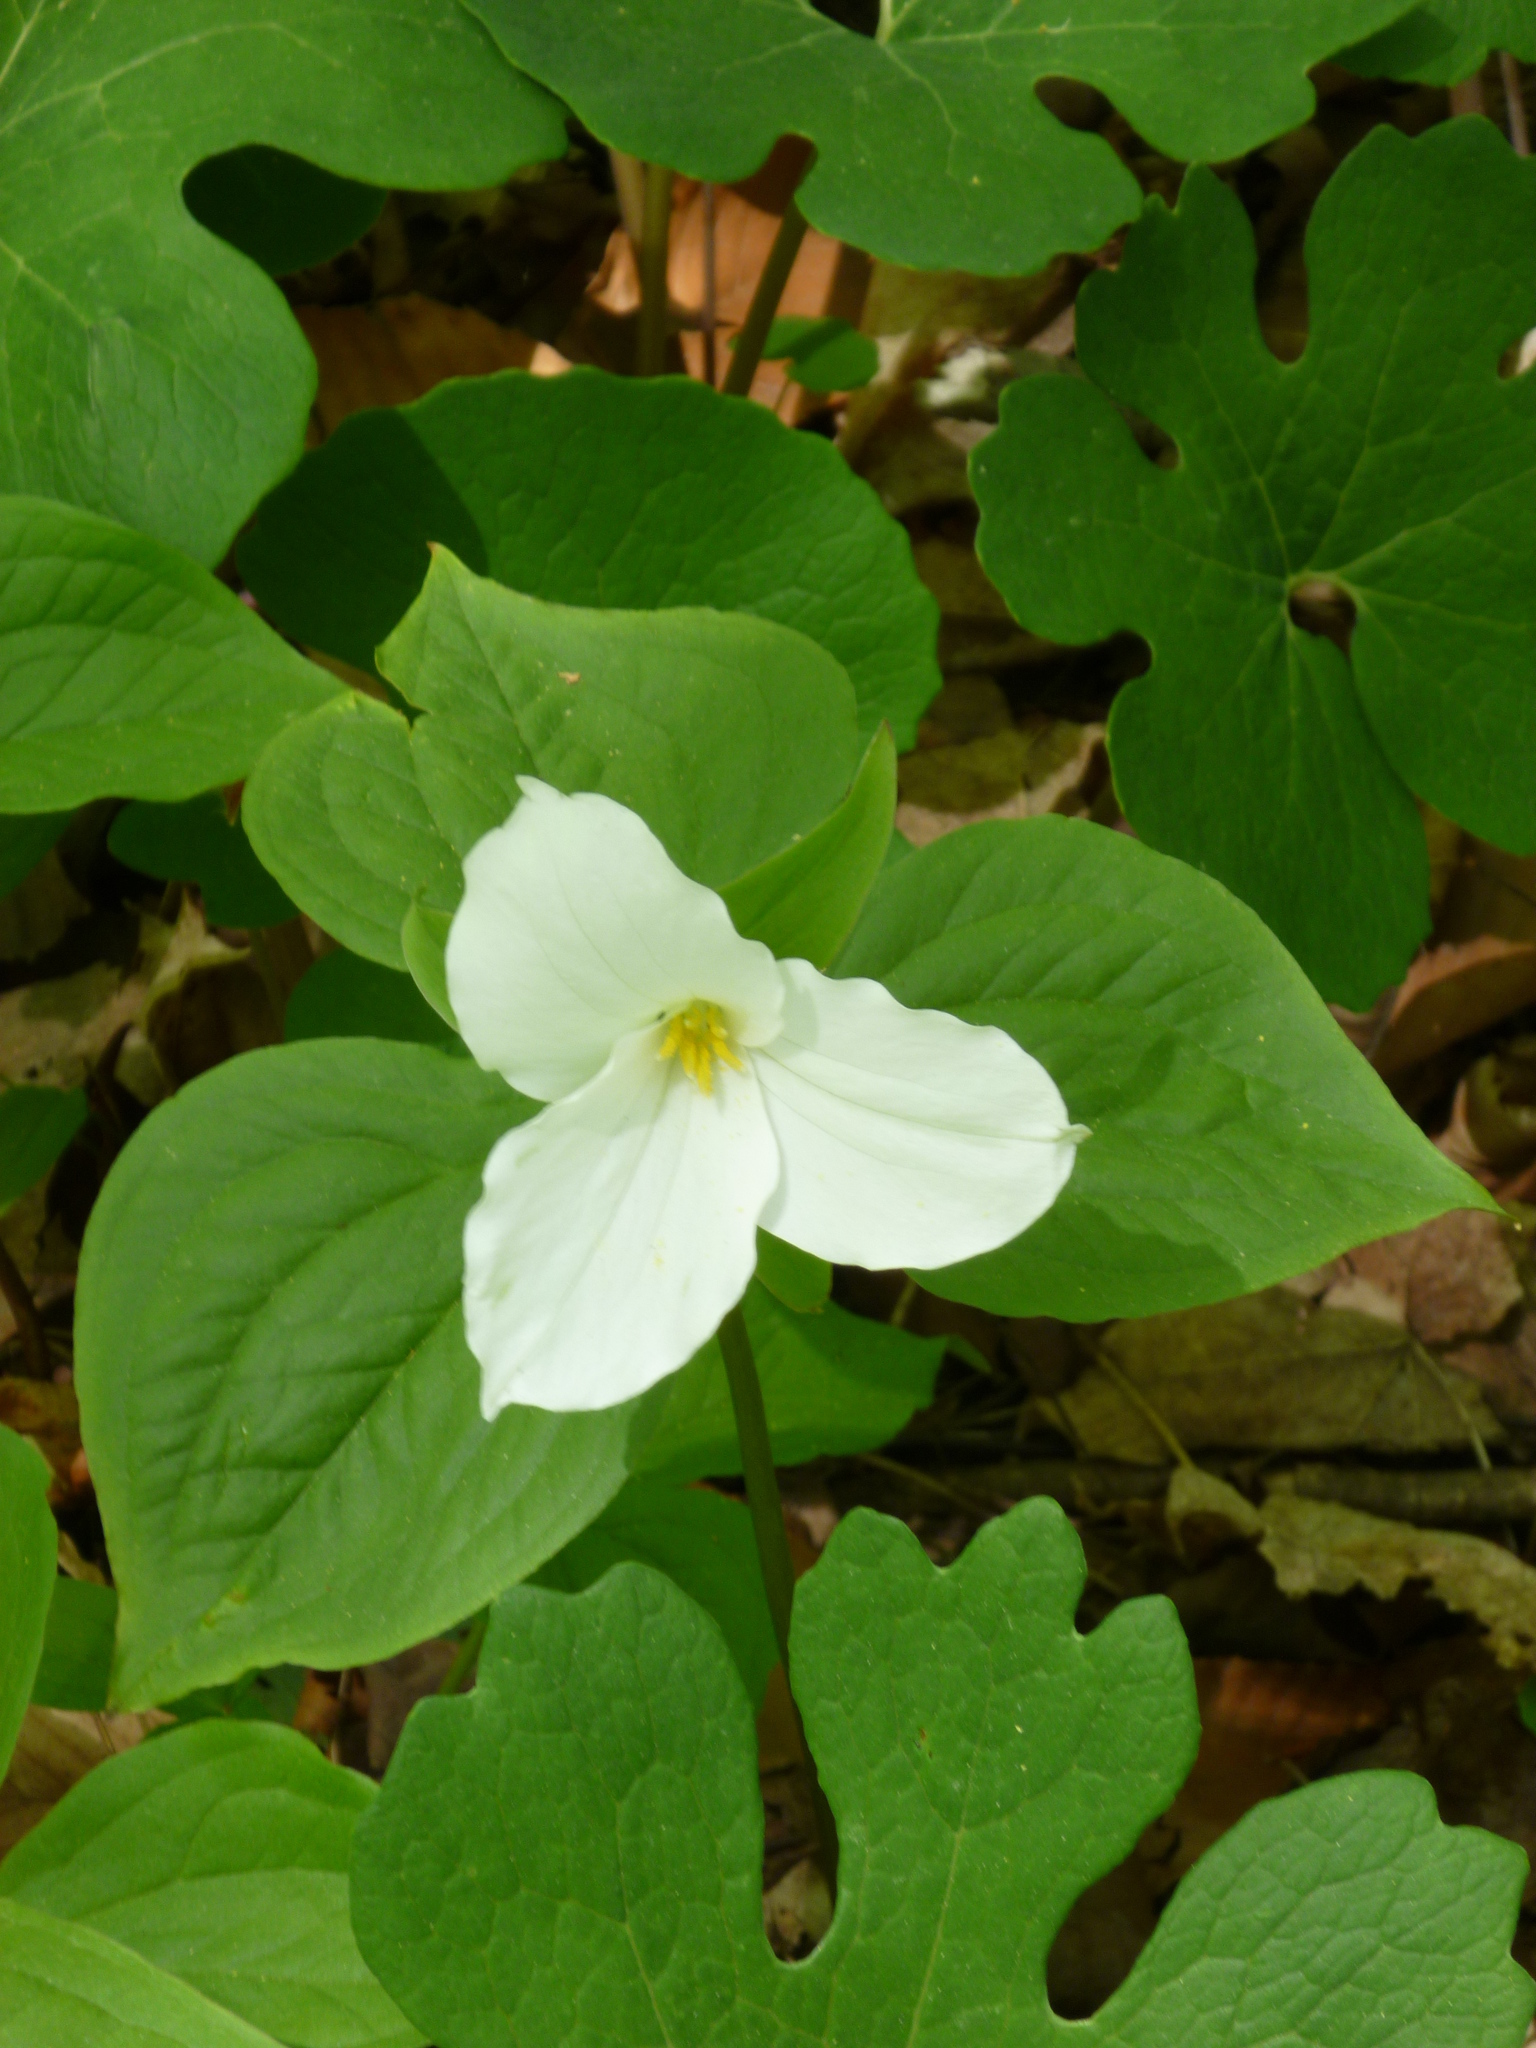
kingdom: Plantae
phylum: Tracheophyta
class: Liliopsida
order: Liliales
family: Melanthiaceae
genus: Trillium
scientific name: Trillium grandiflorum
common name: Great white trillium
